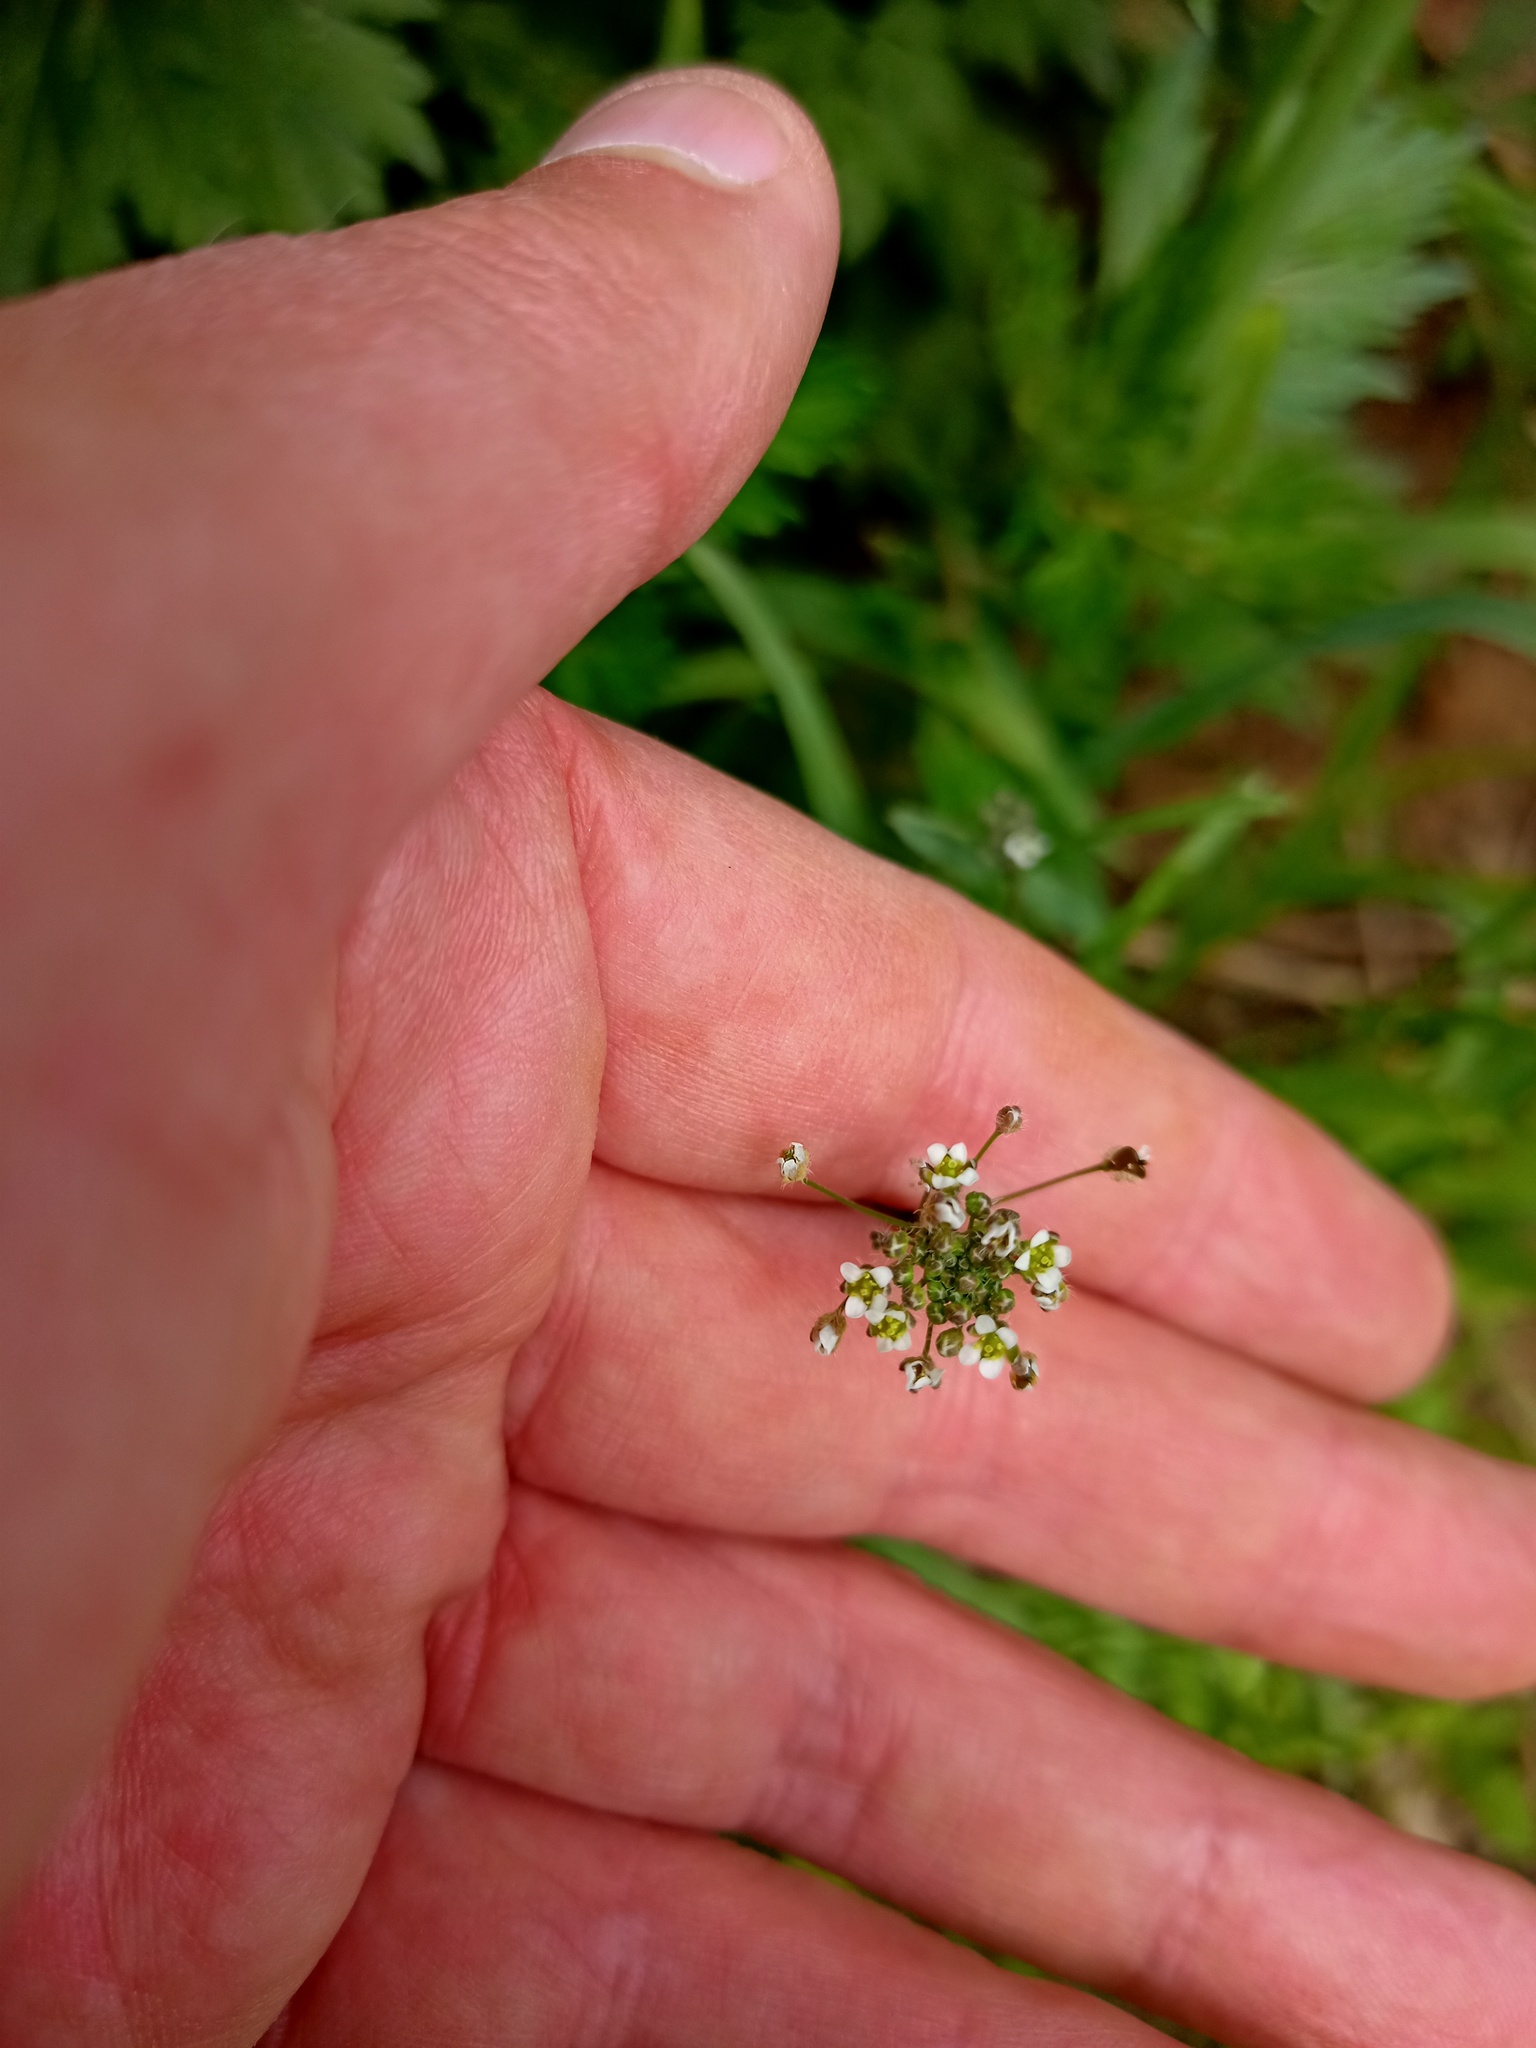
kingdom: Plantae
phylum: Tracheophyta
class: Magnoliopsida
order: Brassicales
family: Brassicaceae
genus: Capsella
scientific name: Capsella bursa-pastoris
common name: Shepherd's purse
